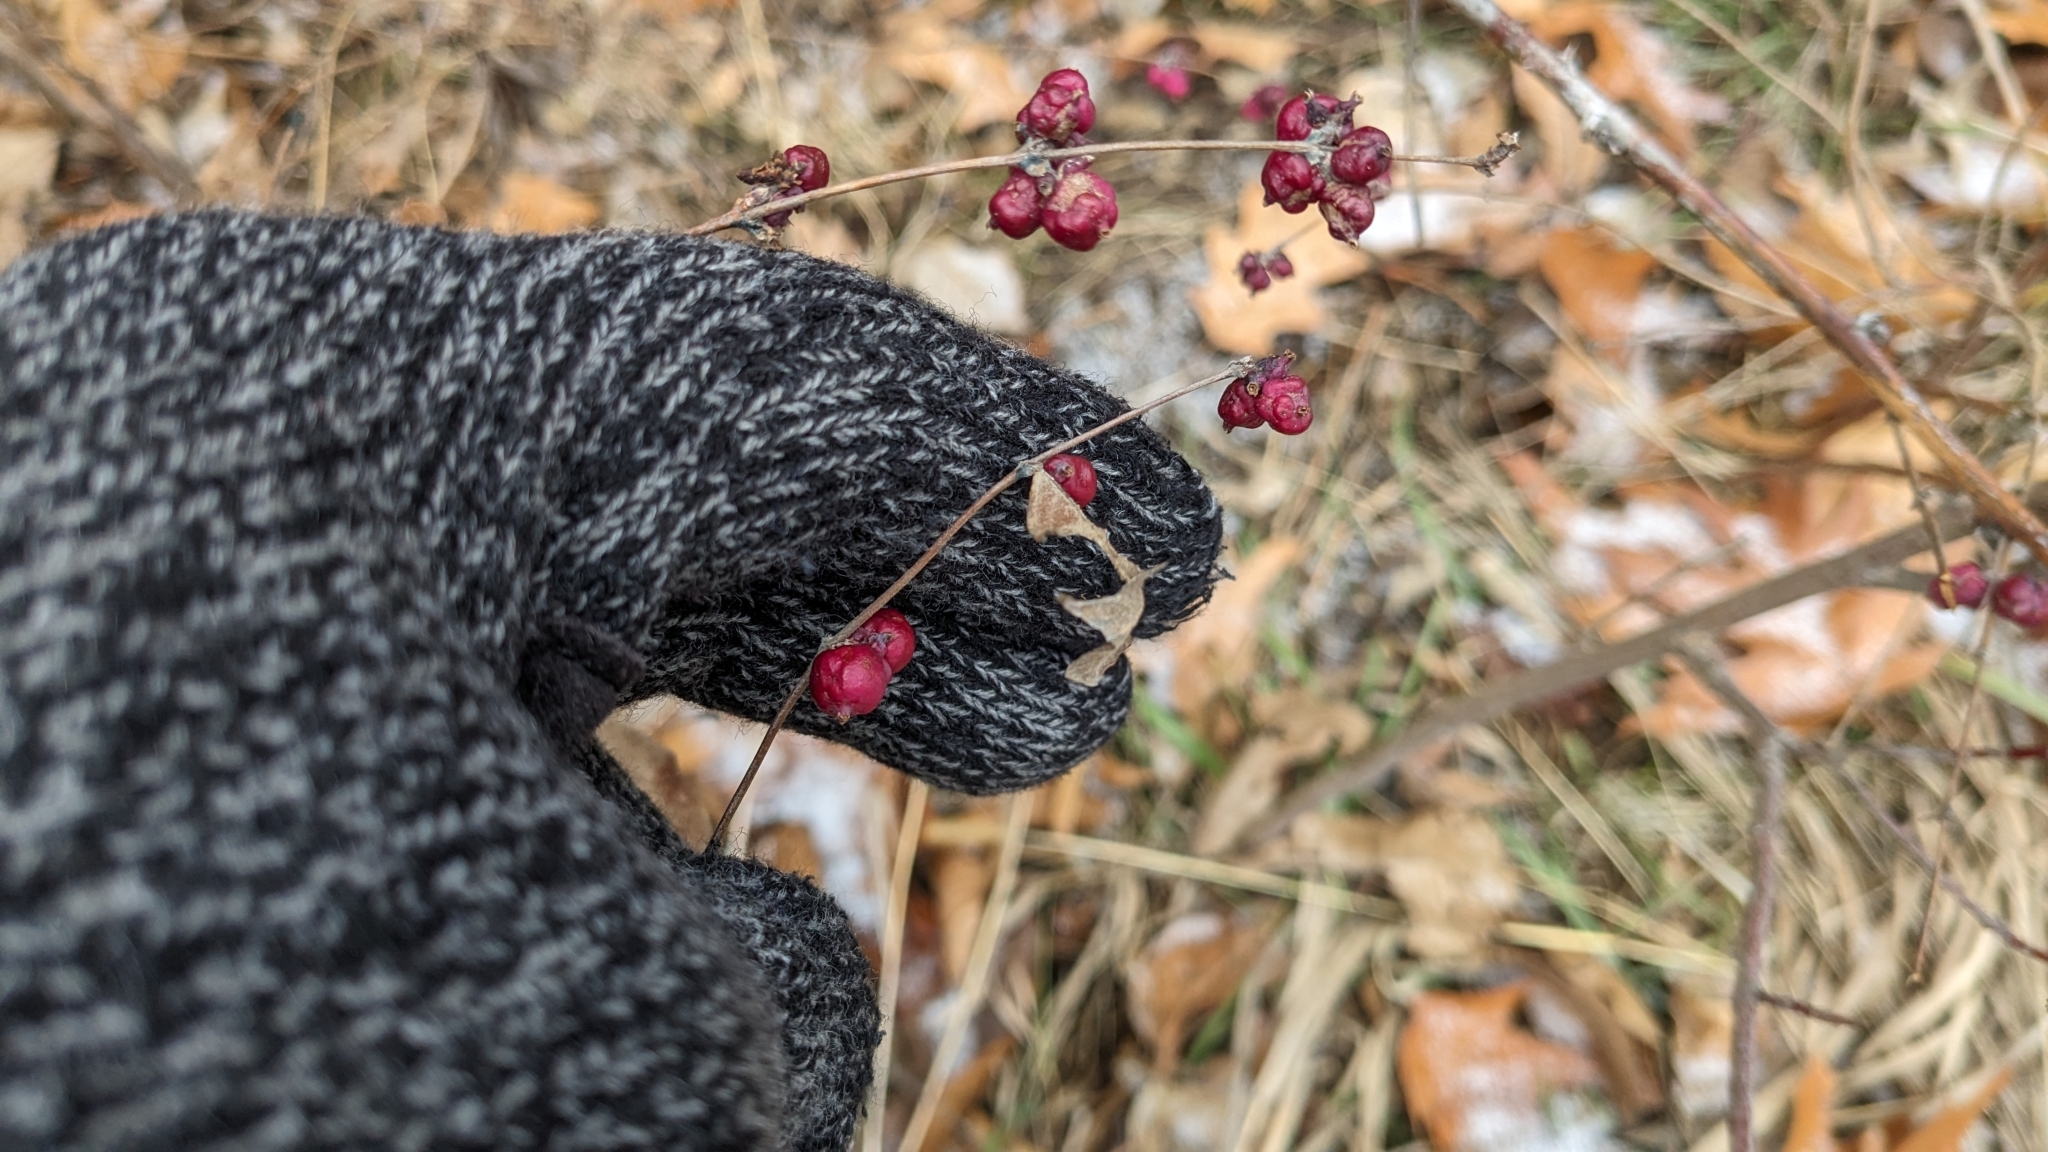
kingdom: Plantae
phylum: Tracheophyta
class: Magnoliopsida
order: Dipsacales
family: Caprifoliaceae
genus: Symphoricarpos
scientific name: Symphoricarpos orbiculatus
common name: Coralberry
